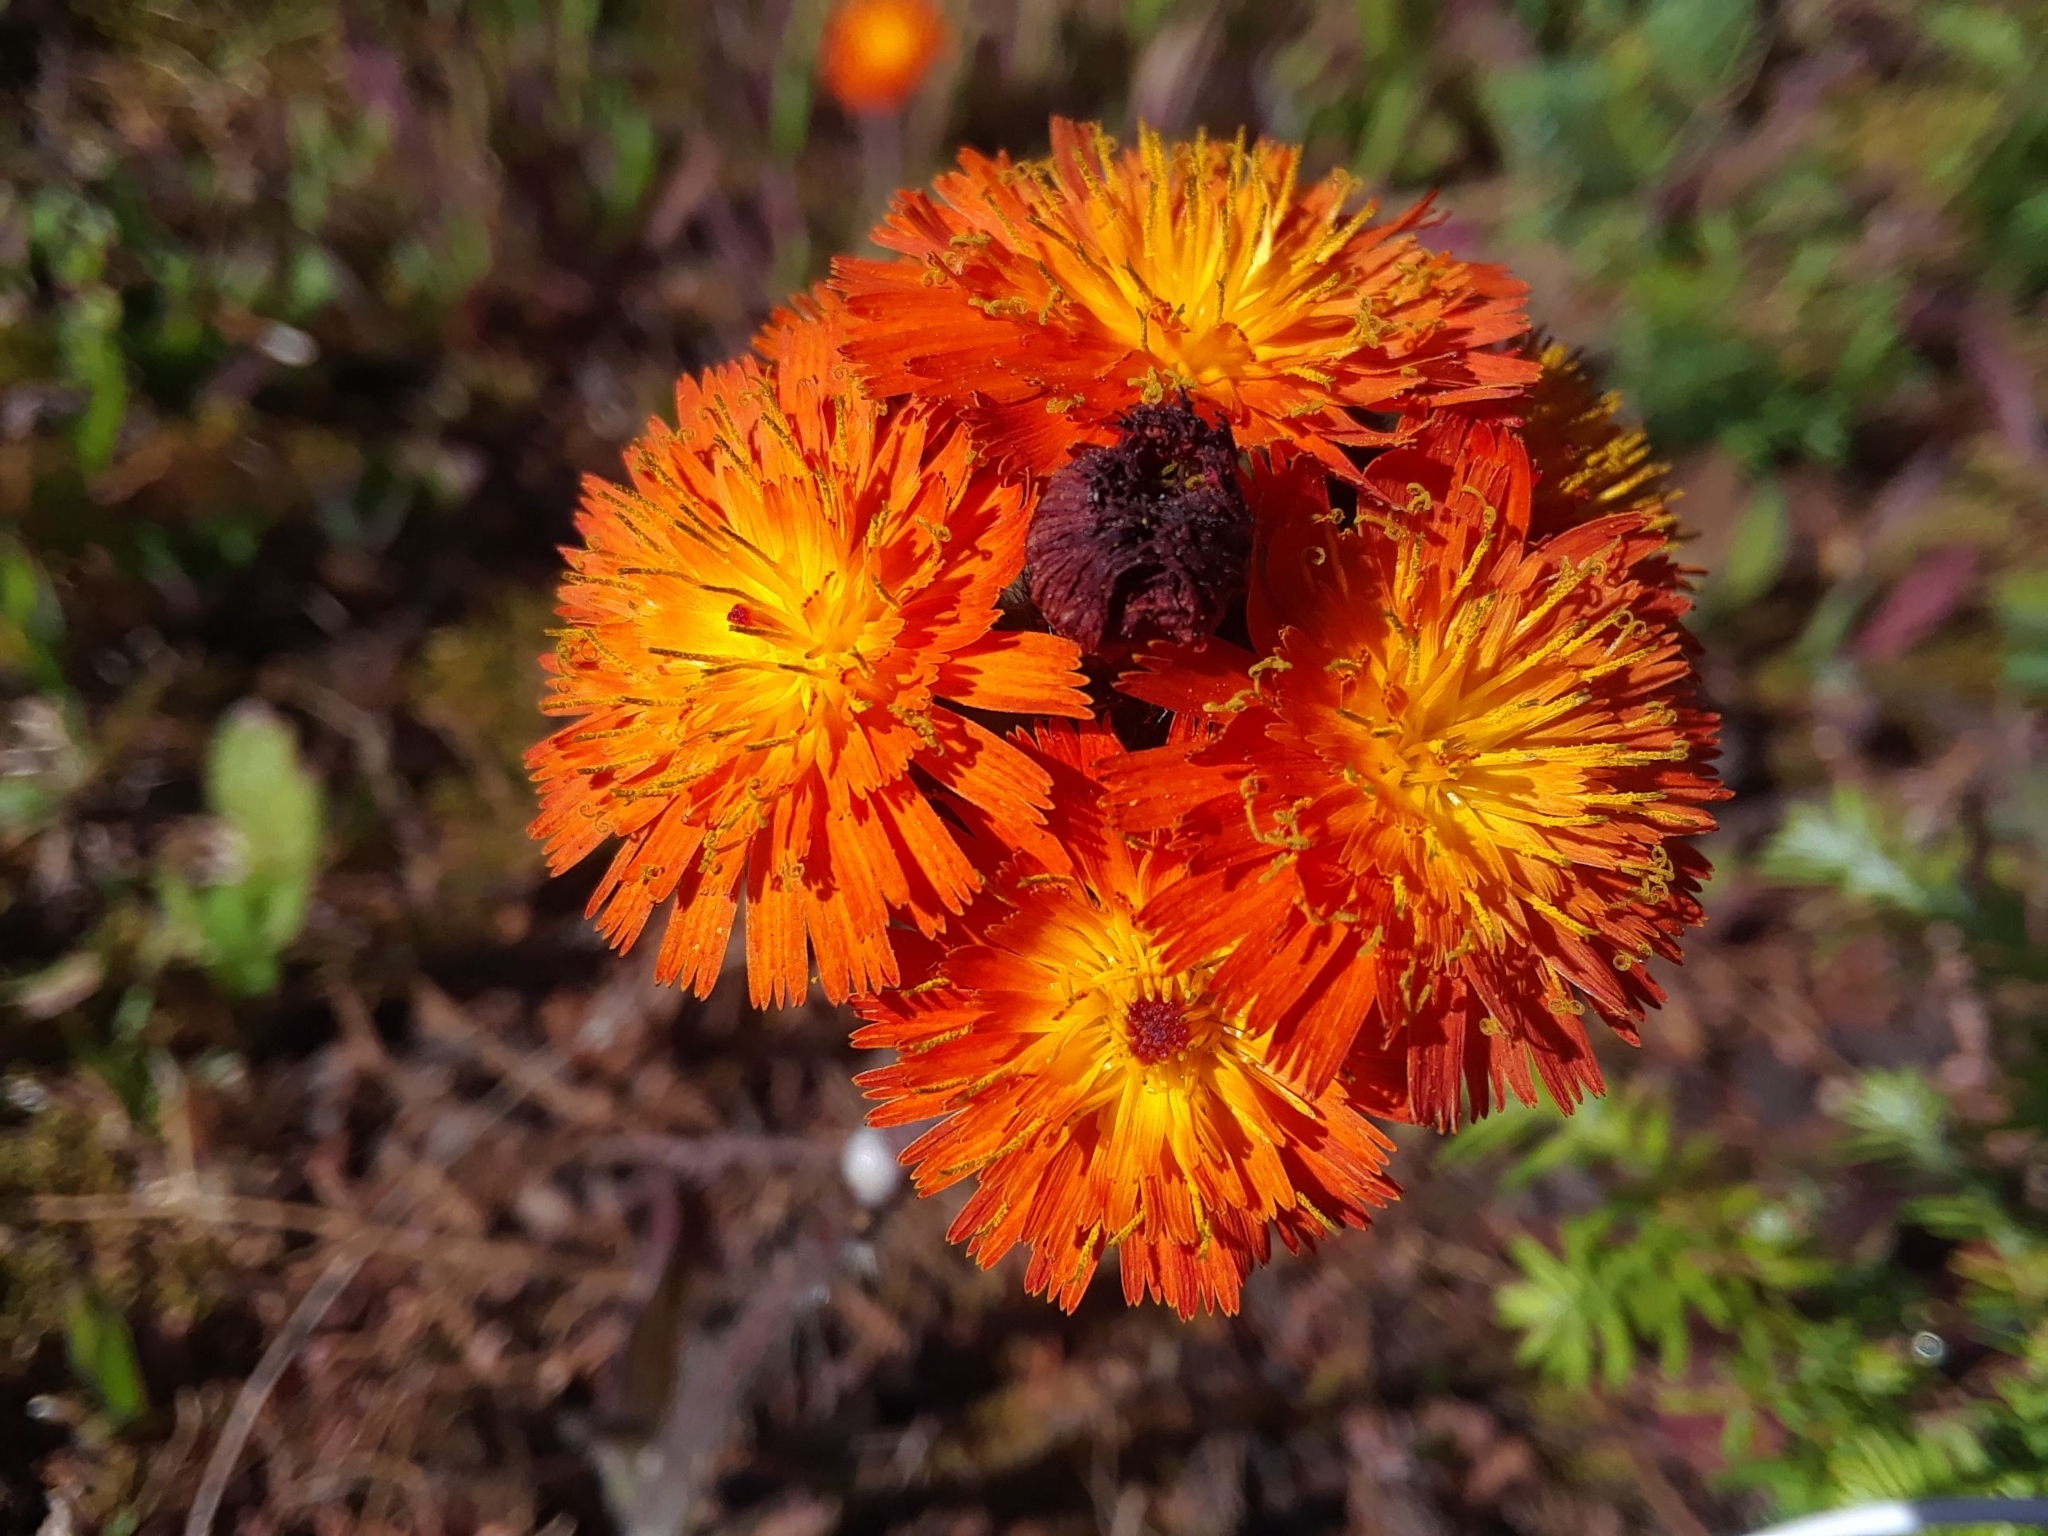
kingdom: Plantae
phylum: Tracheophyta
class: Magnoliopsida
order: Asterales
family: Asteraceae
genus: Pilosella
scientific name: Pilosella aurantiaca
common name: Fox-and-cubs
